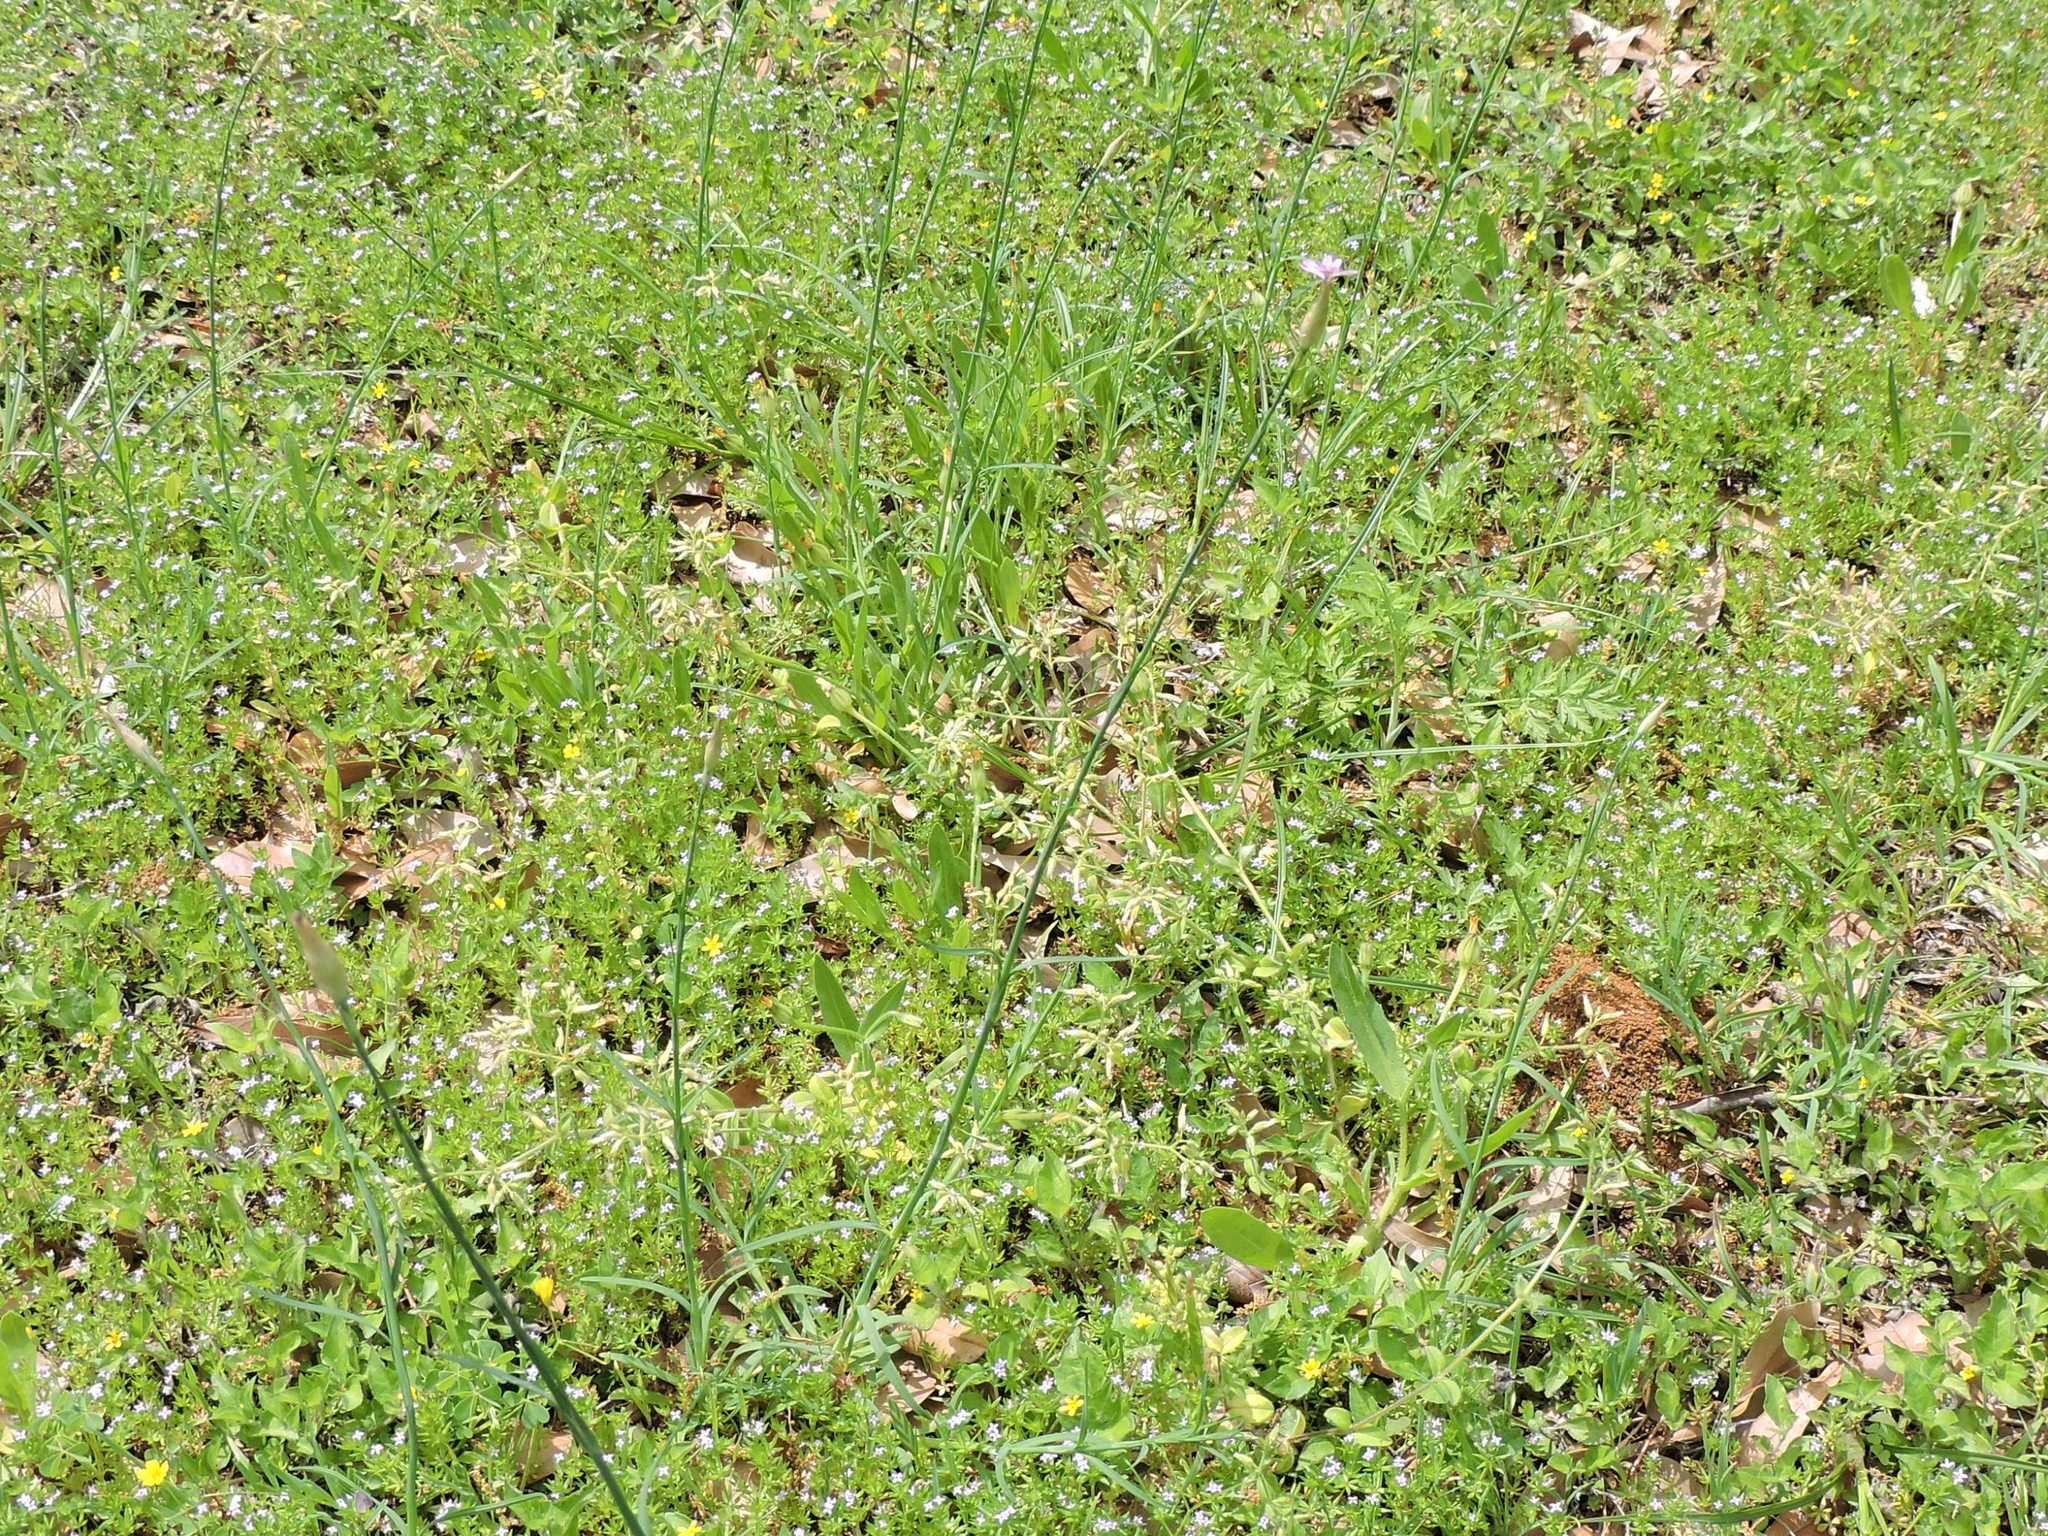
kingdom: Plantae
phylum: Tracheophyta
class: Magnoliopsida
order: Caryophyllales
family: Caryophyllaceae
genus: Petrorhagia
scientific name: Petrorhagia dubia
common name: Hairypink
